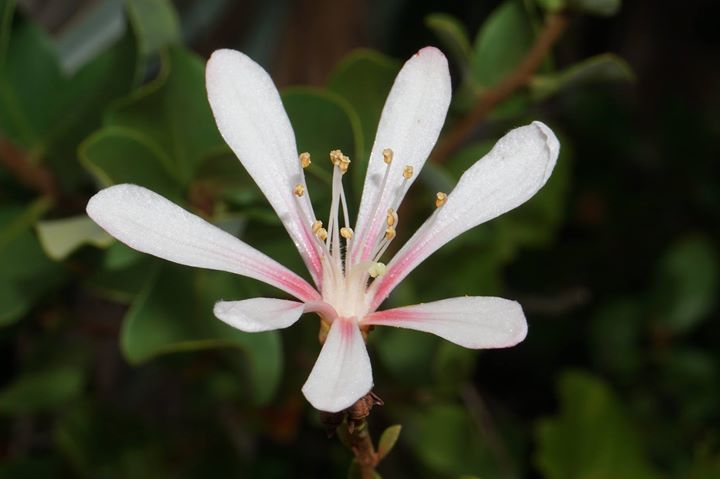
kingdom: Plantae
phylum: Tracheophyta
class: Magnoliopsida
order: Ericales
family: Ericaceae
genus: Bejaria
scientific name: Bejaria racemosa
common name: Tarflower
